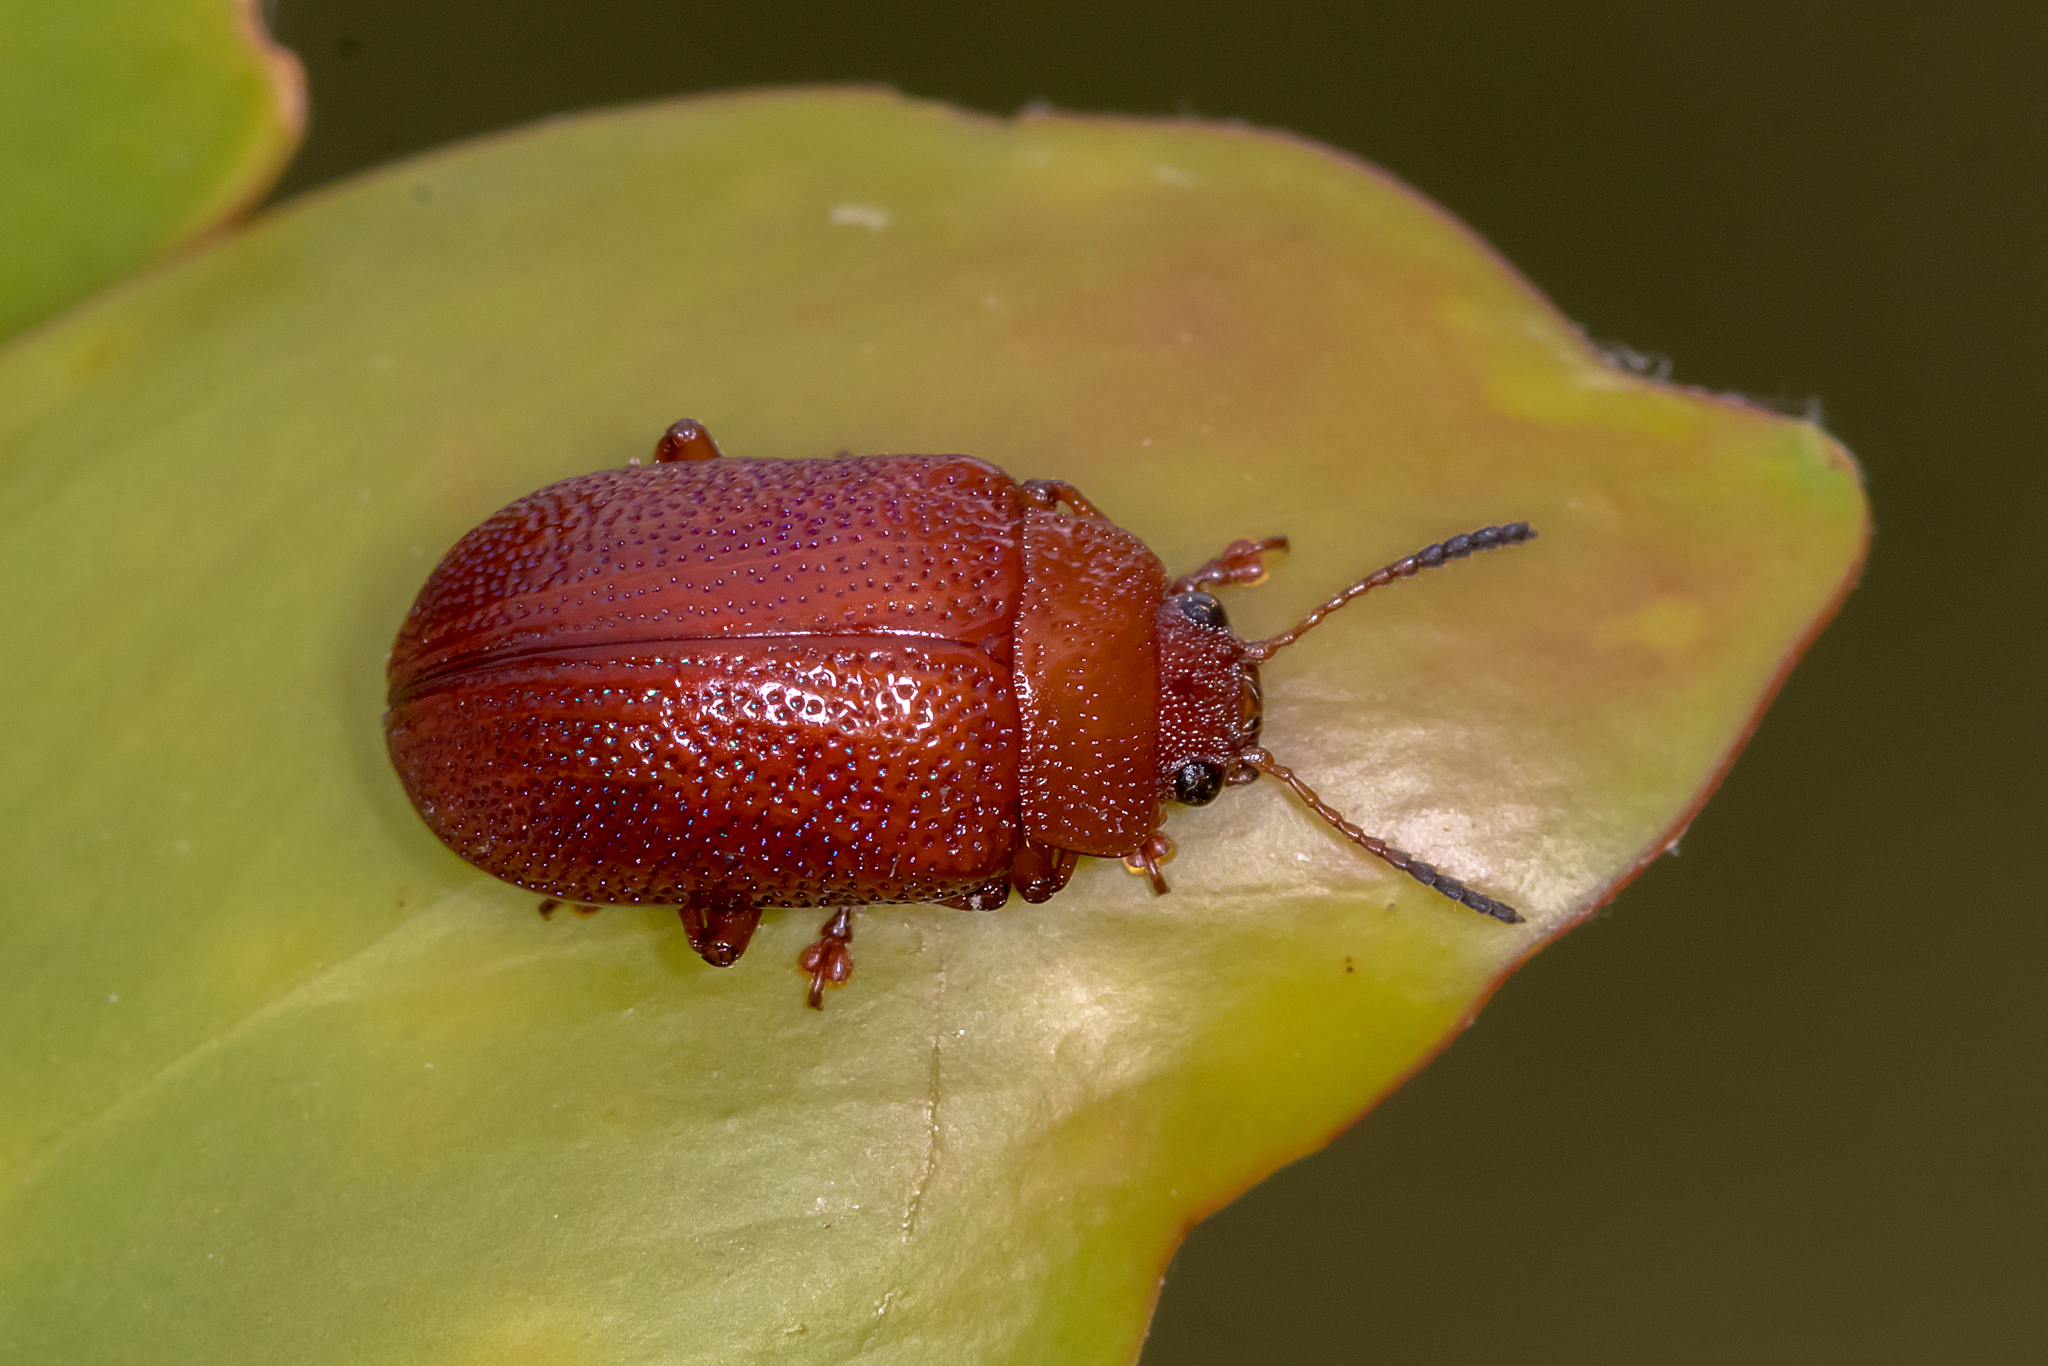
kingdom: Animalia
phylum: Arthropoda
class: Insecta
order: Coleoptera
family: Chrysomelidae
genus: Calomela
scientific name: Calomela
